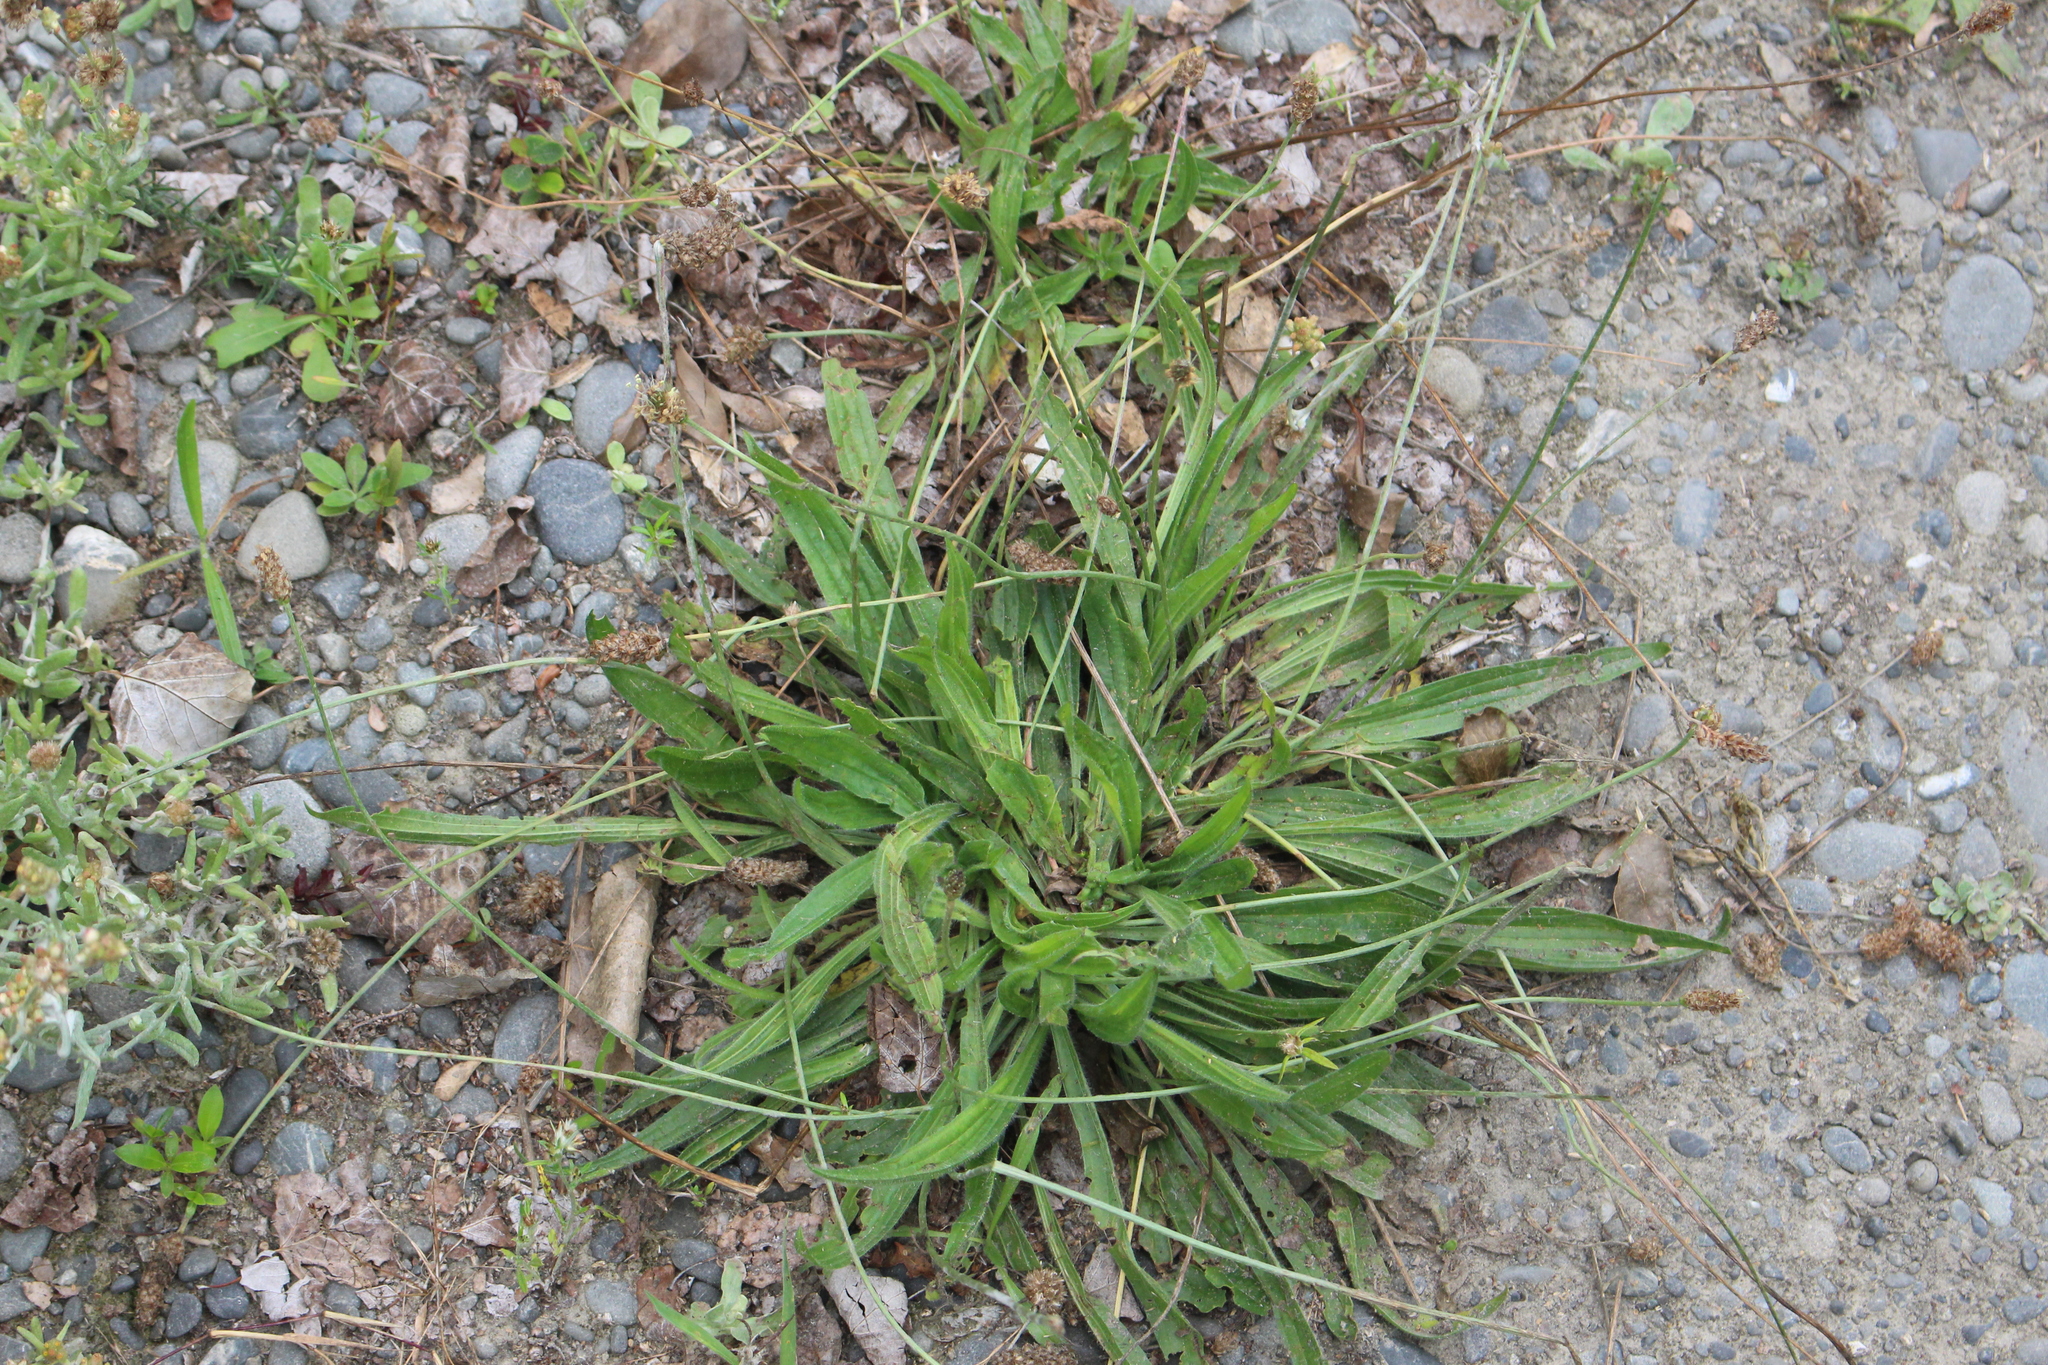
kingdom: Plantae
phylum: Tracheophyta
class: Magnoliopsida
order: Lamiales
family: Plantaginaceae
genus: Plantago
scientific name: Plantago lanceolata
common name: Ribwort plantain
